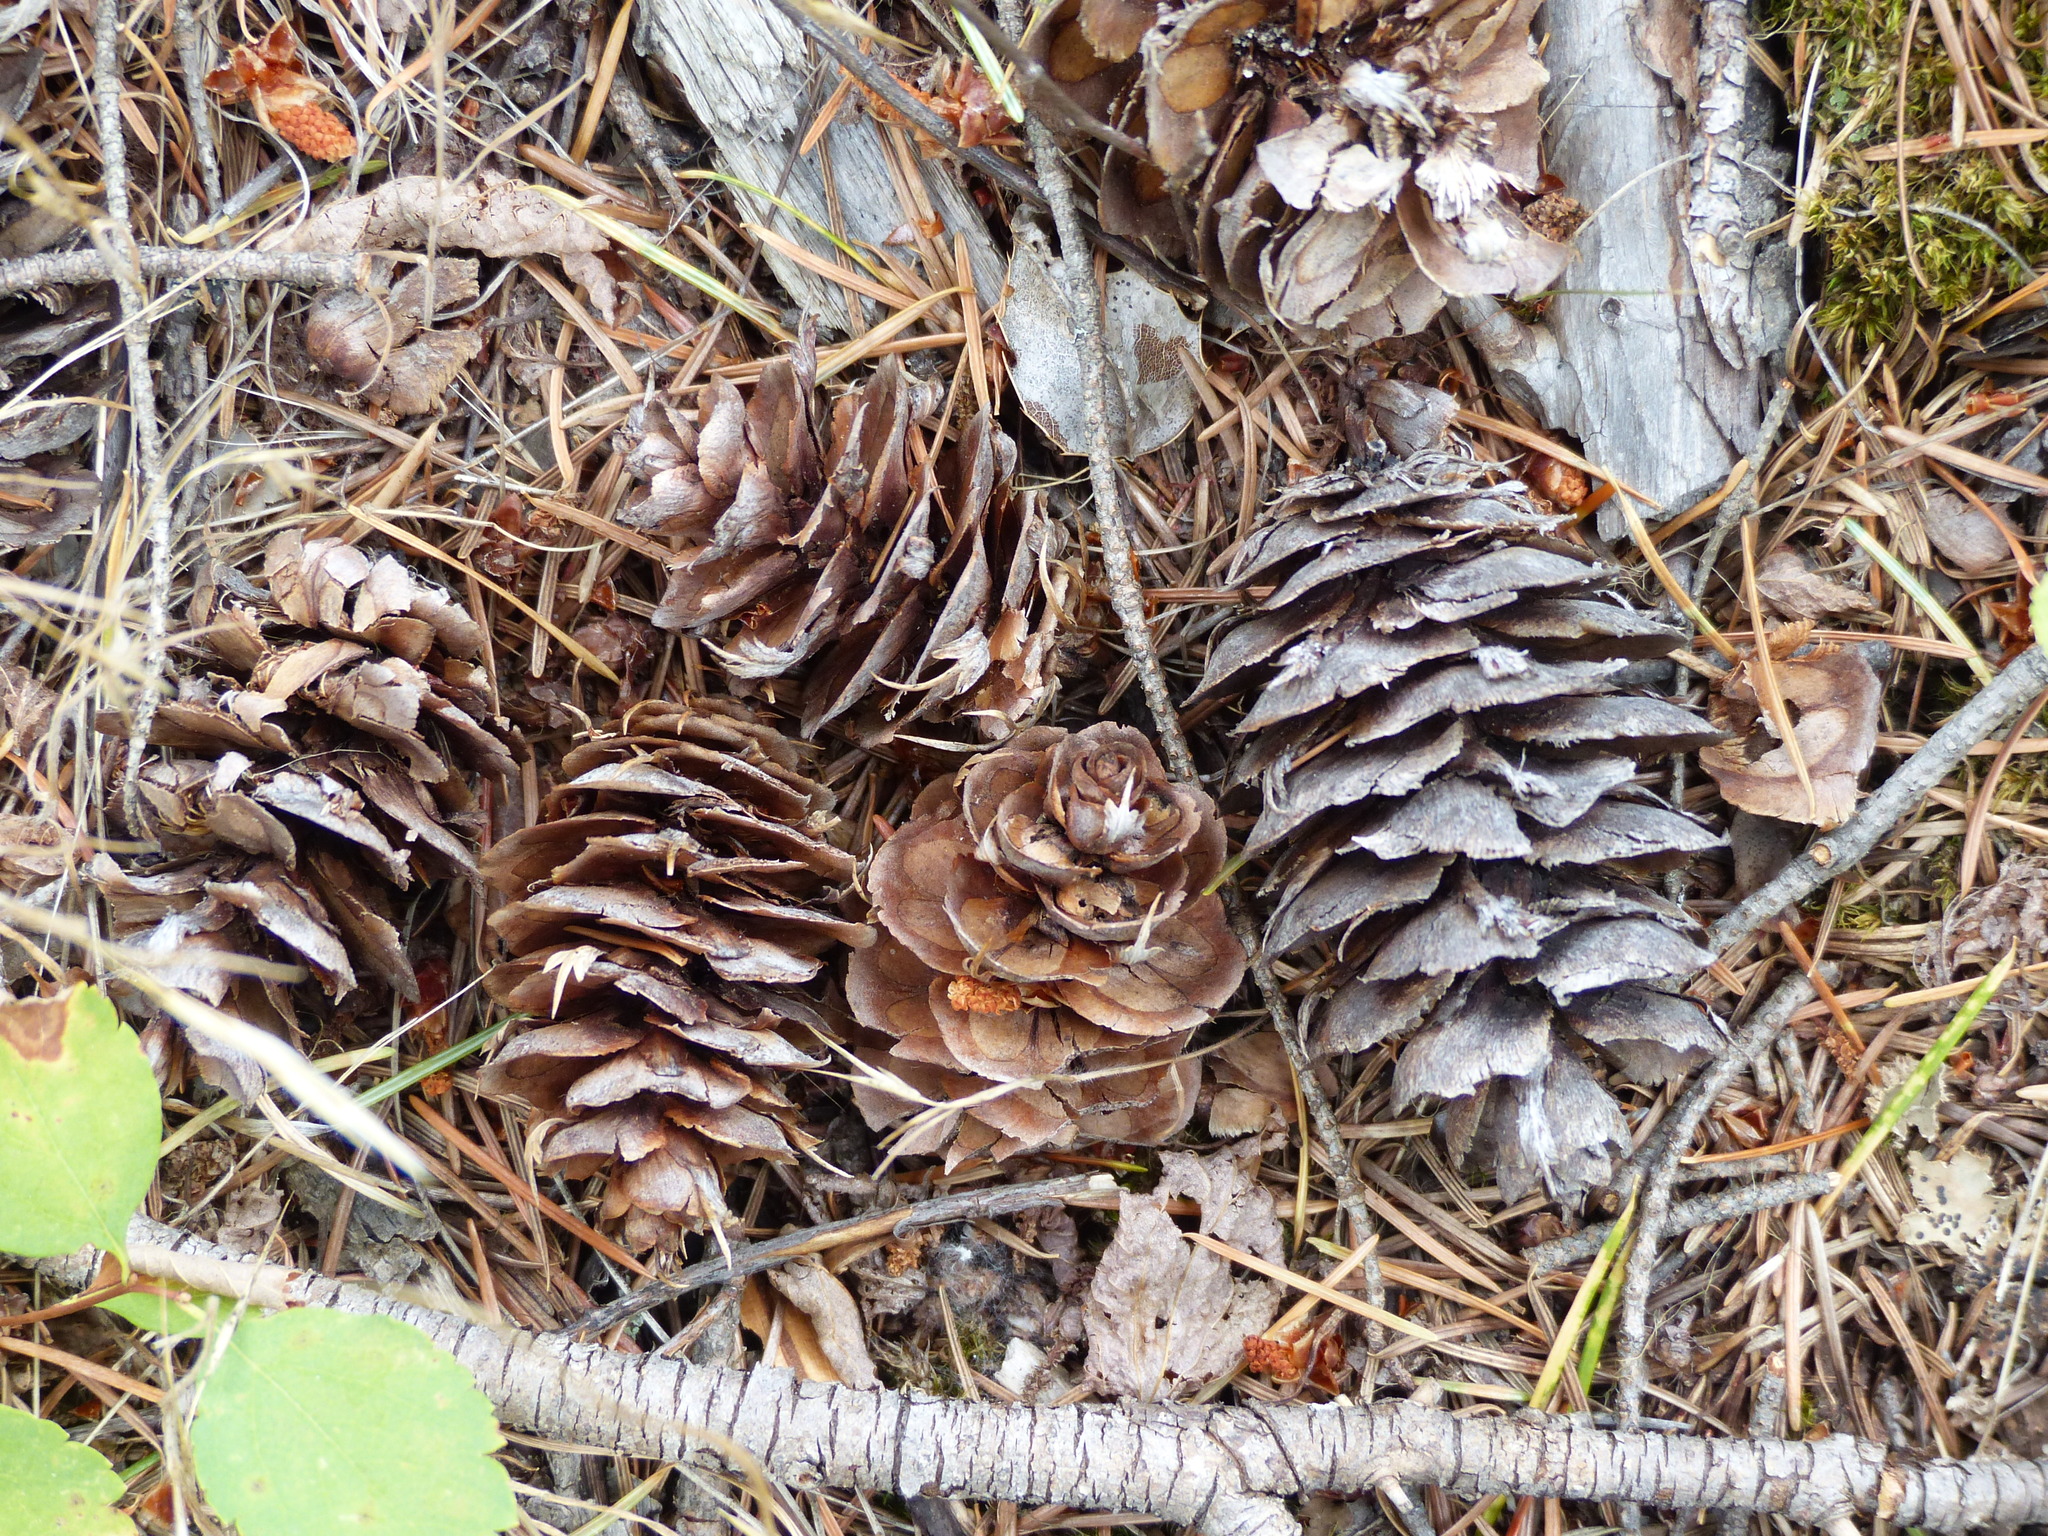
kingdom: Plantae
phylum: Tracheophyta
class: Pinopsida
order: Pinales
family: Pinaceae
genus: Pseudotsuga
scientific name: Pseudotsuga menziesii
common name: Douglas fir
